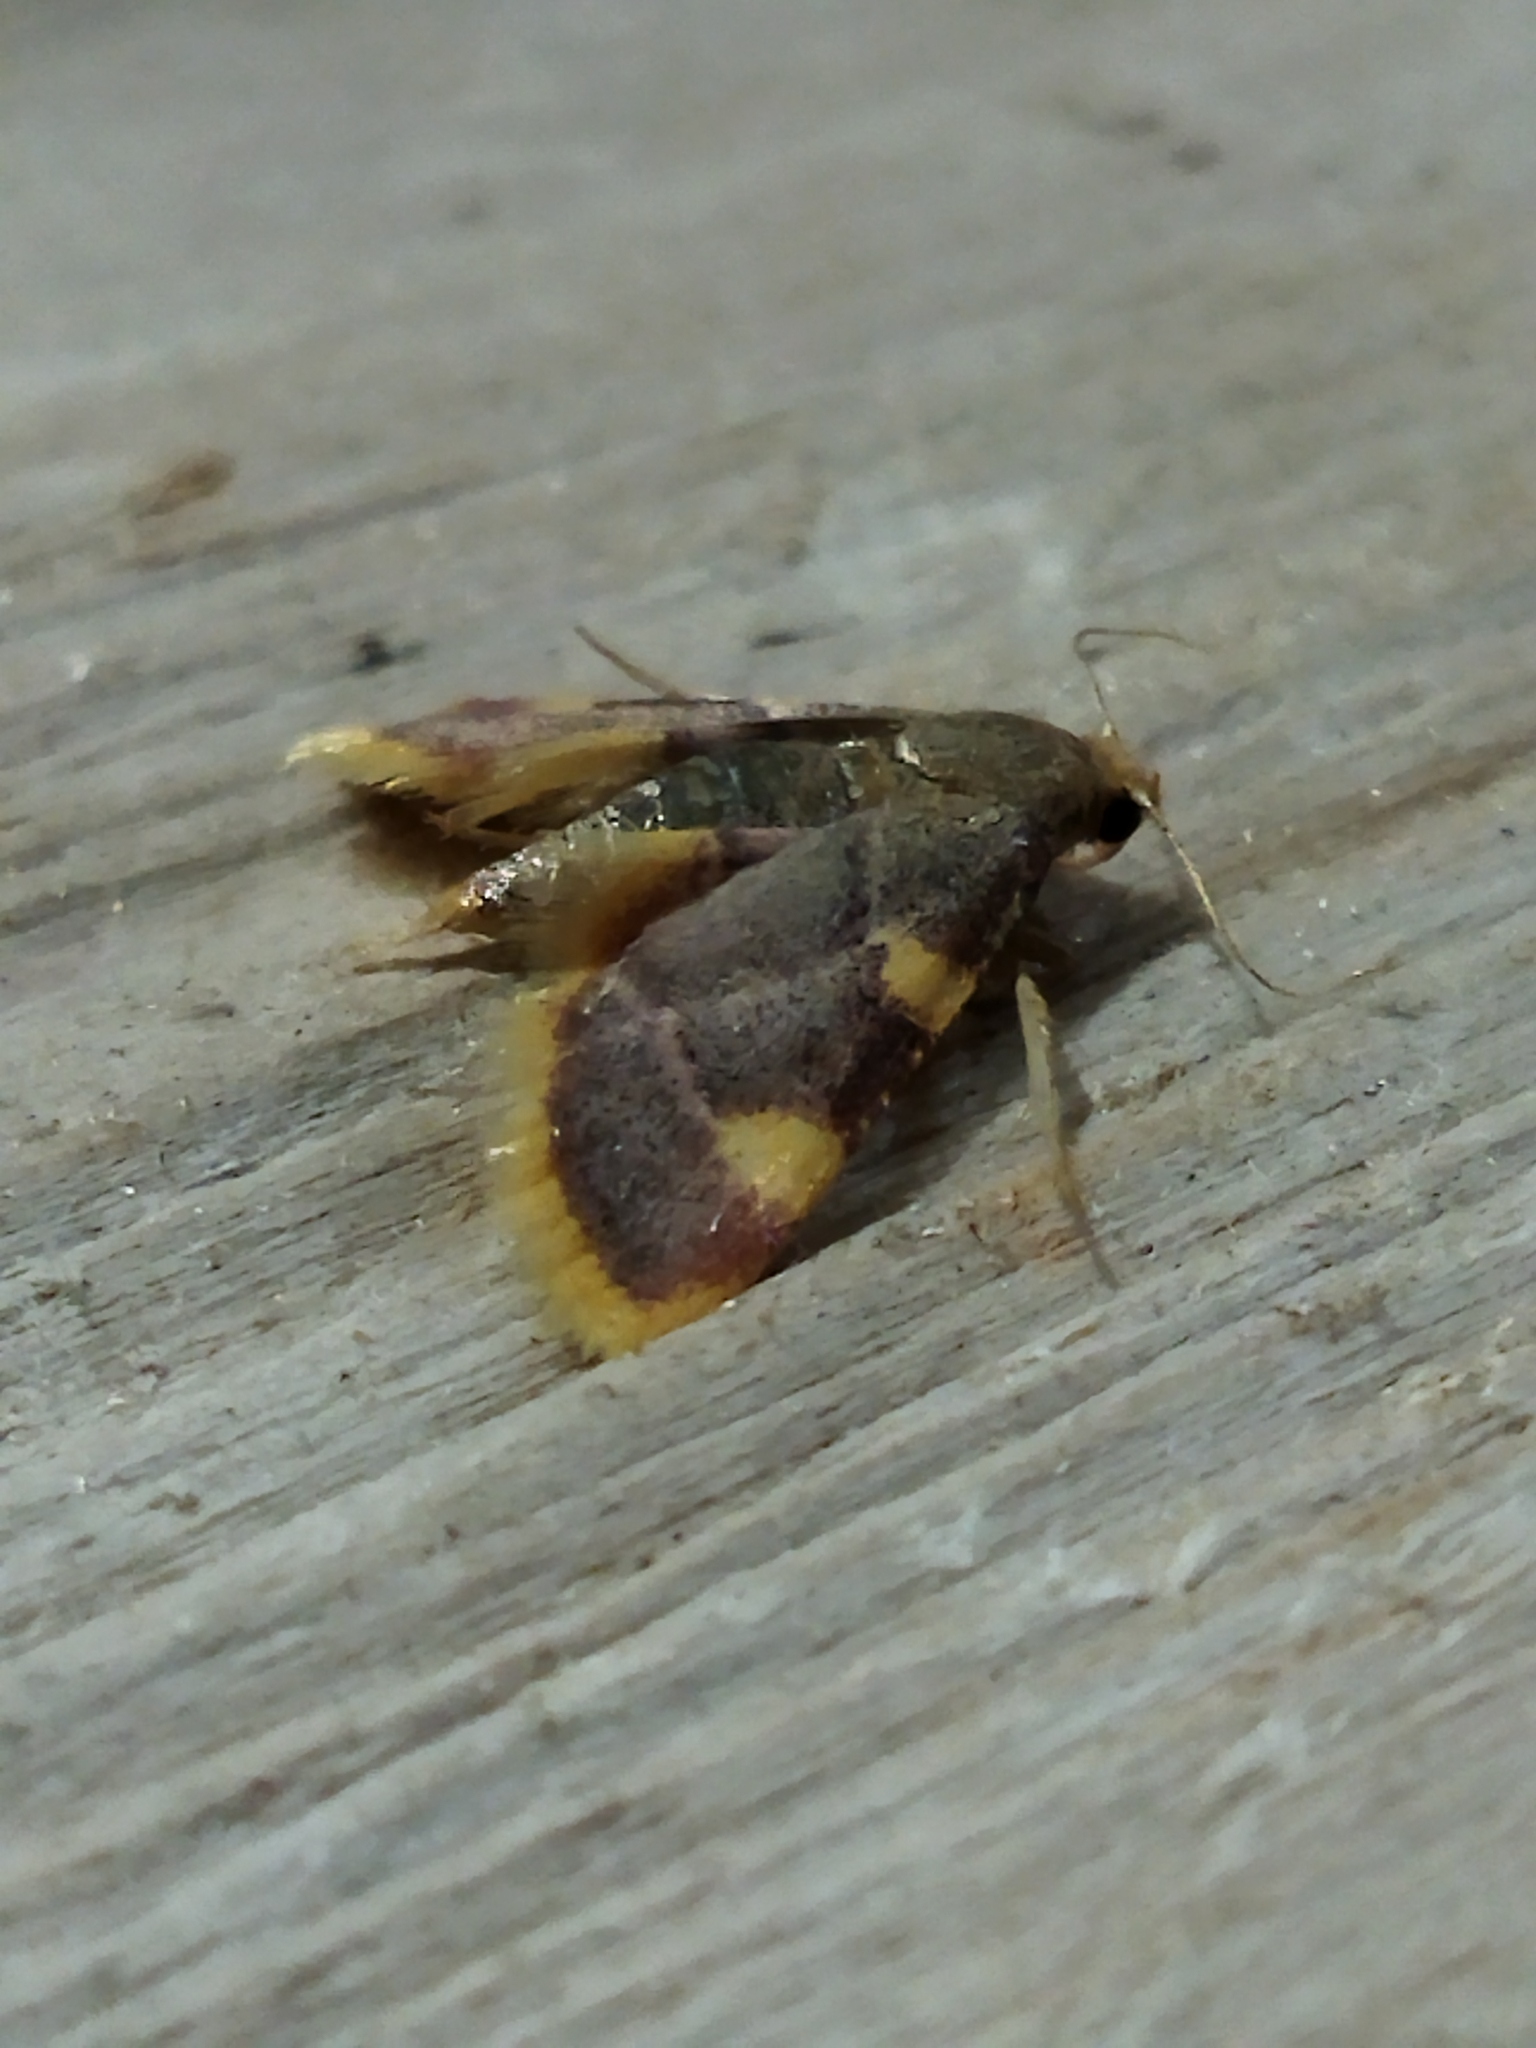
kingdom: Animalia
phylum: Arthropoda
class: Insecta
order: Lepidoptera
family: Pyralidae
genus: Hypsopygia
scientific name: Hypsopygia costalis
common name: Gold triangle
